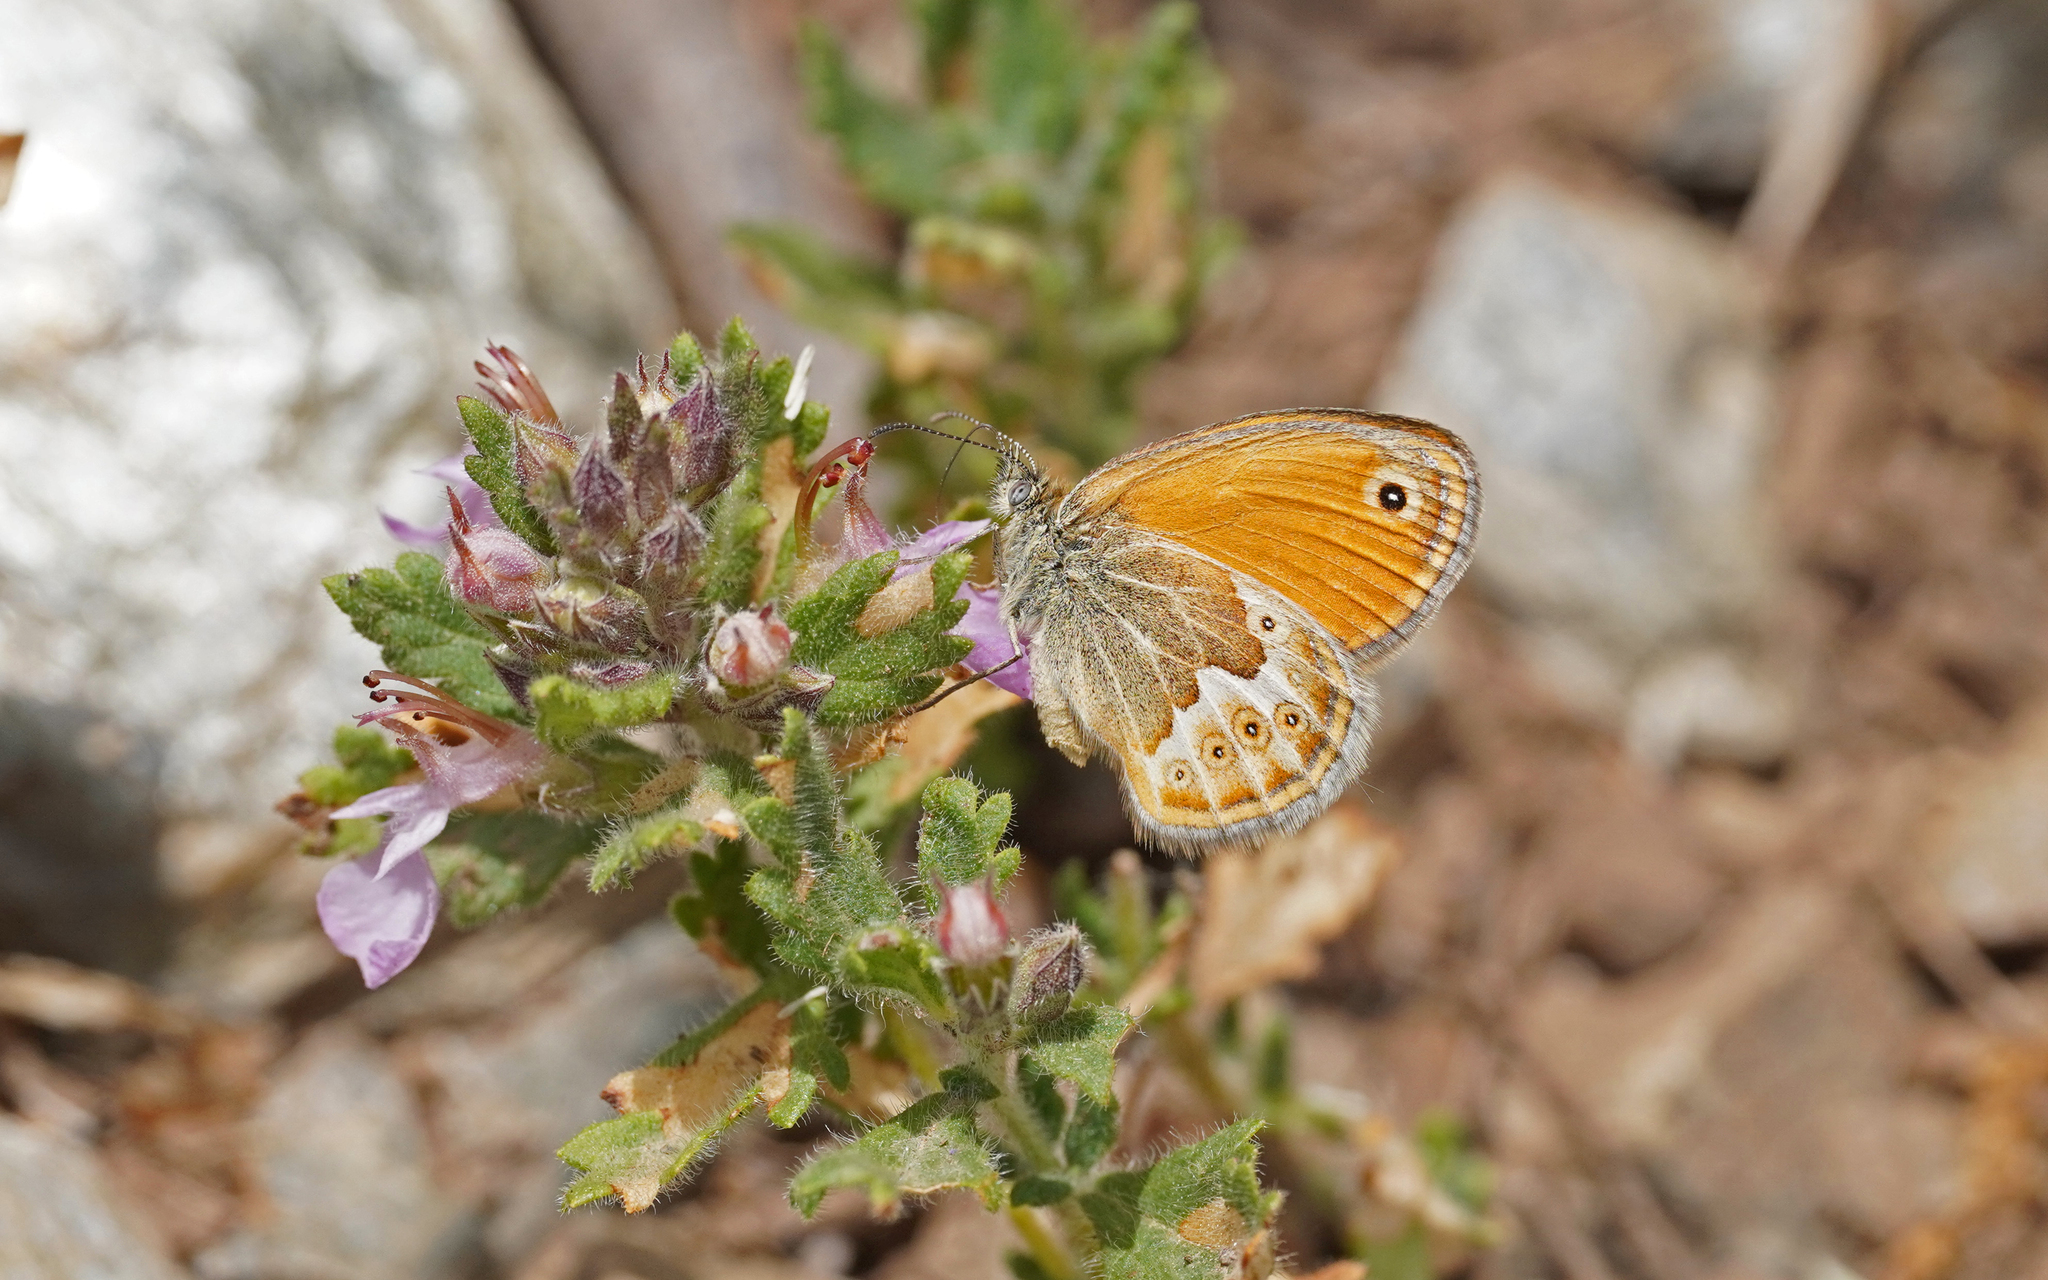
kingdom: Animalia
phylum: Arthropoda
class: Insecta
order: Lepidoptera
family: Nymphalidae
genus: Coenonympha
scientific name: Coenonympha corinna
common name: Corsican heath
